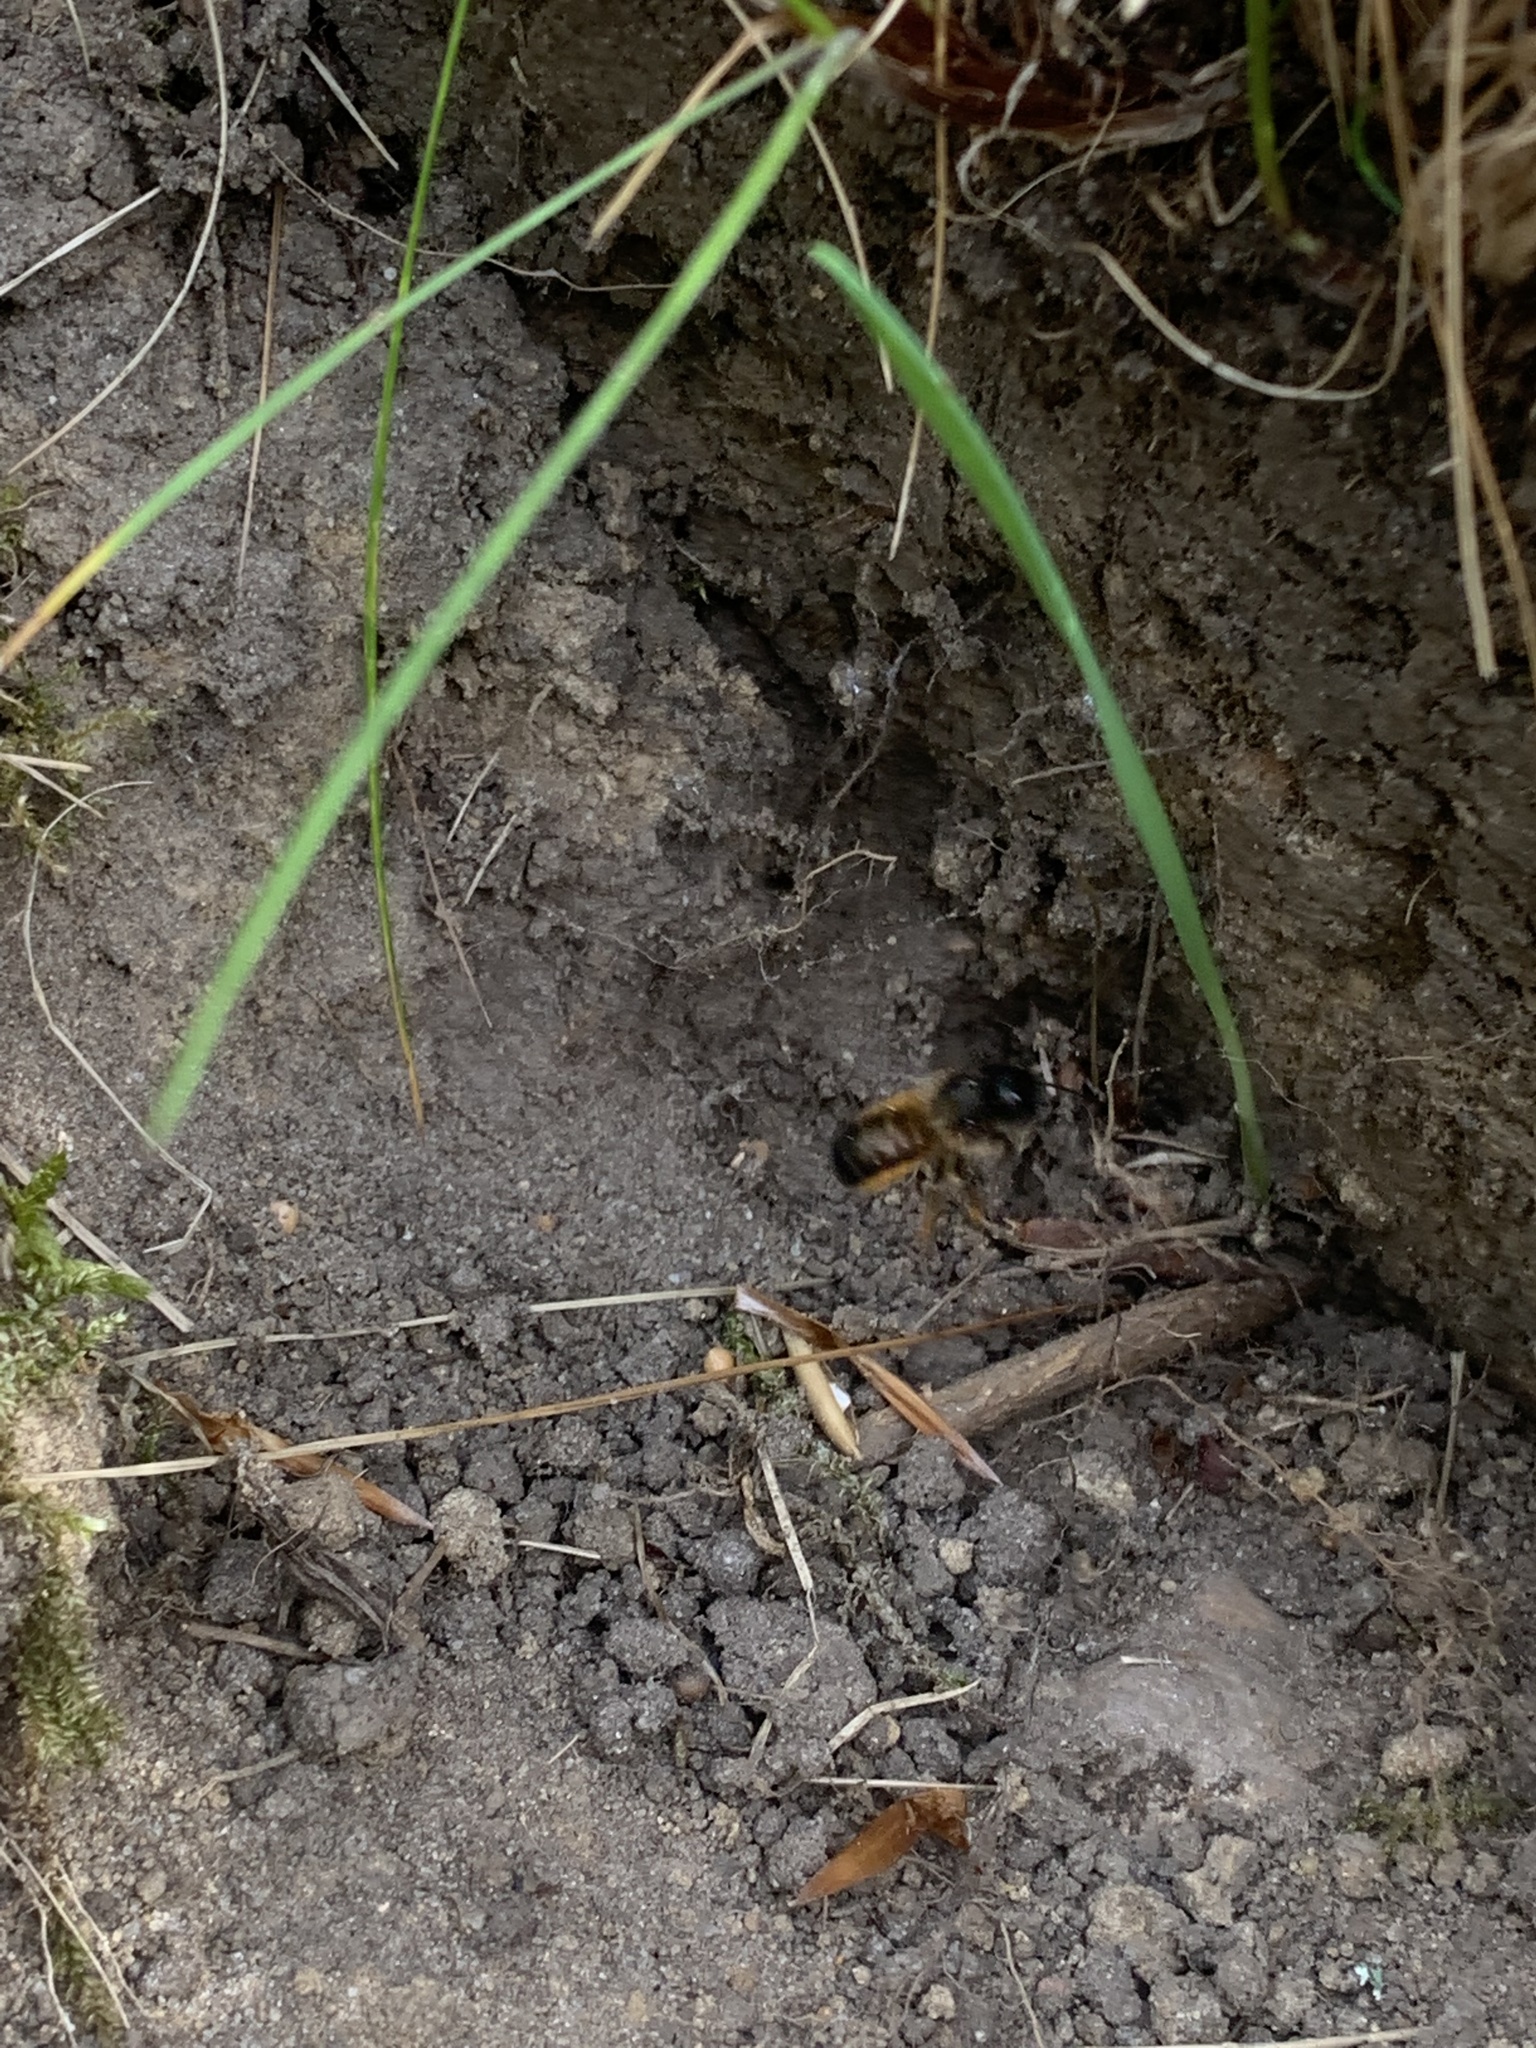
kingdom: Animalia
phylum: Arthropoda
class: Insecta
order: Hymenoptera
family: Megachilidae
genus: Osmia
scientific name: Osmia bicornis
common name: Red mason bee
